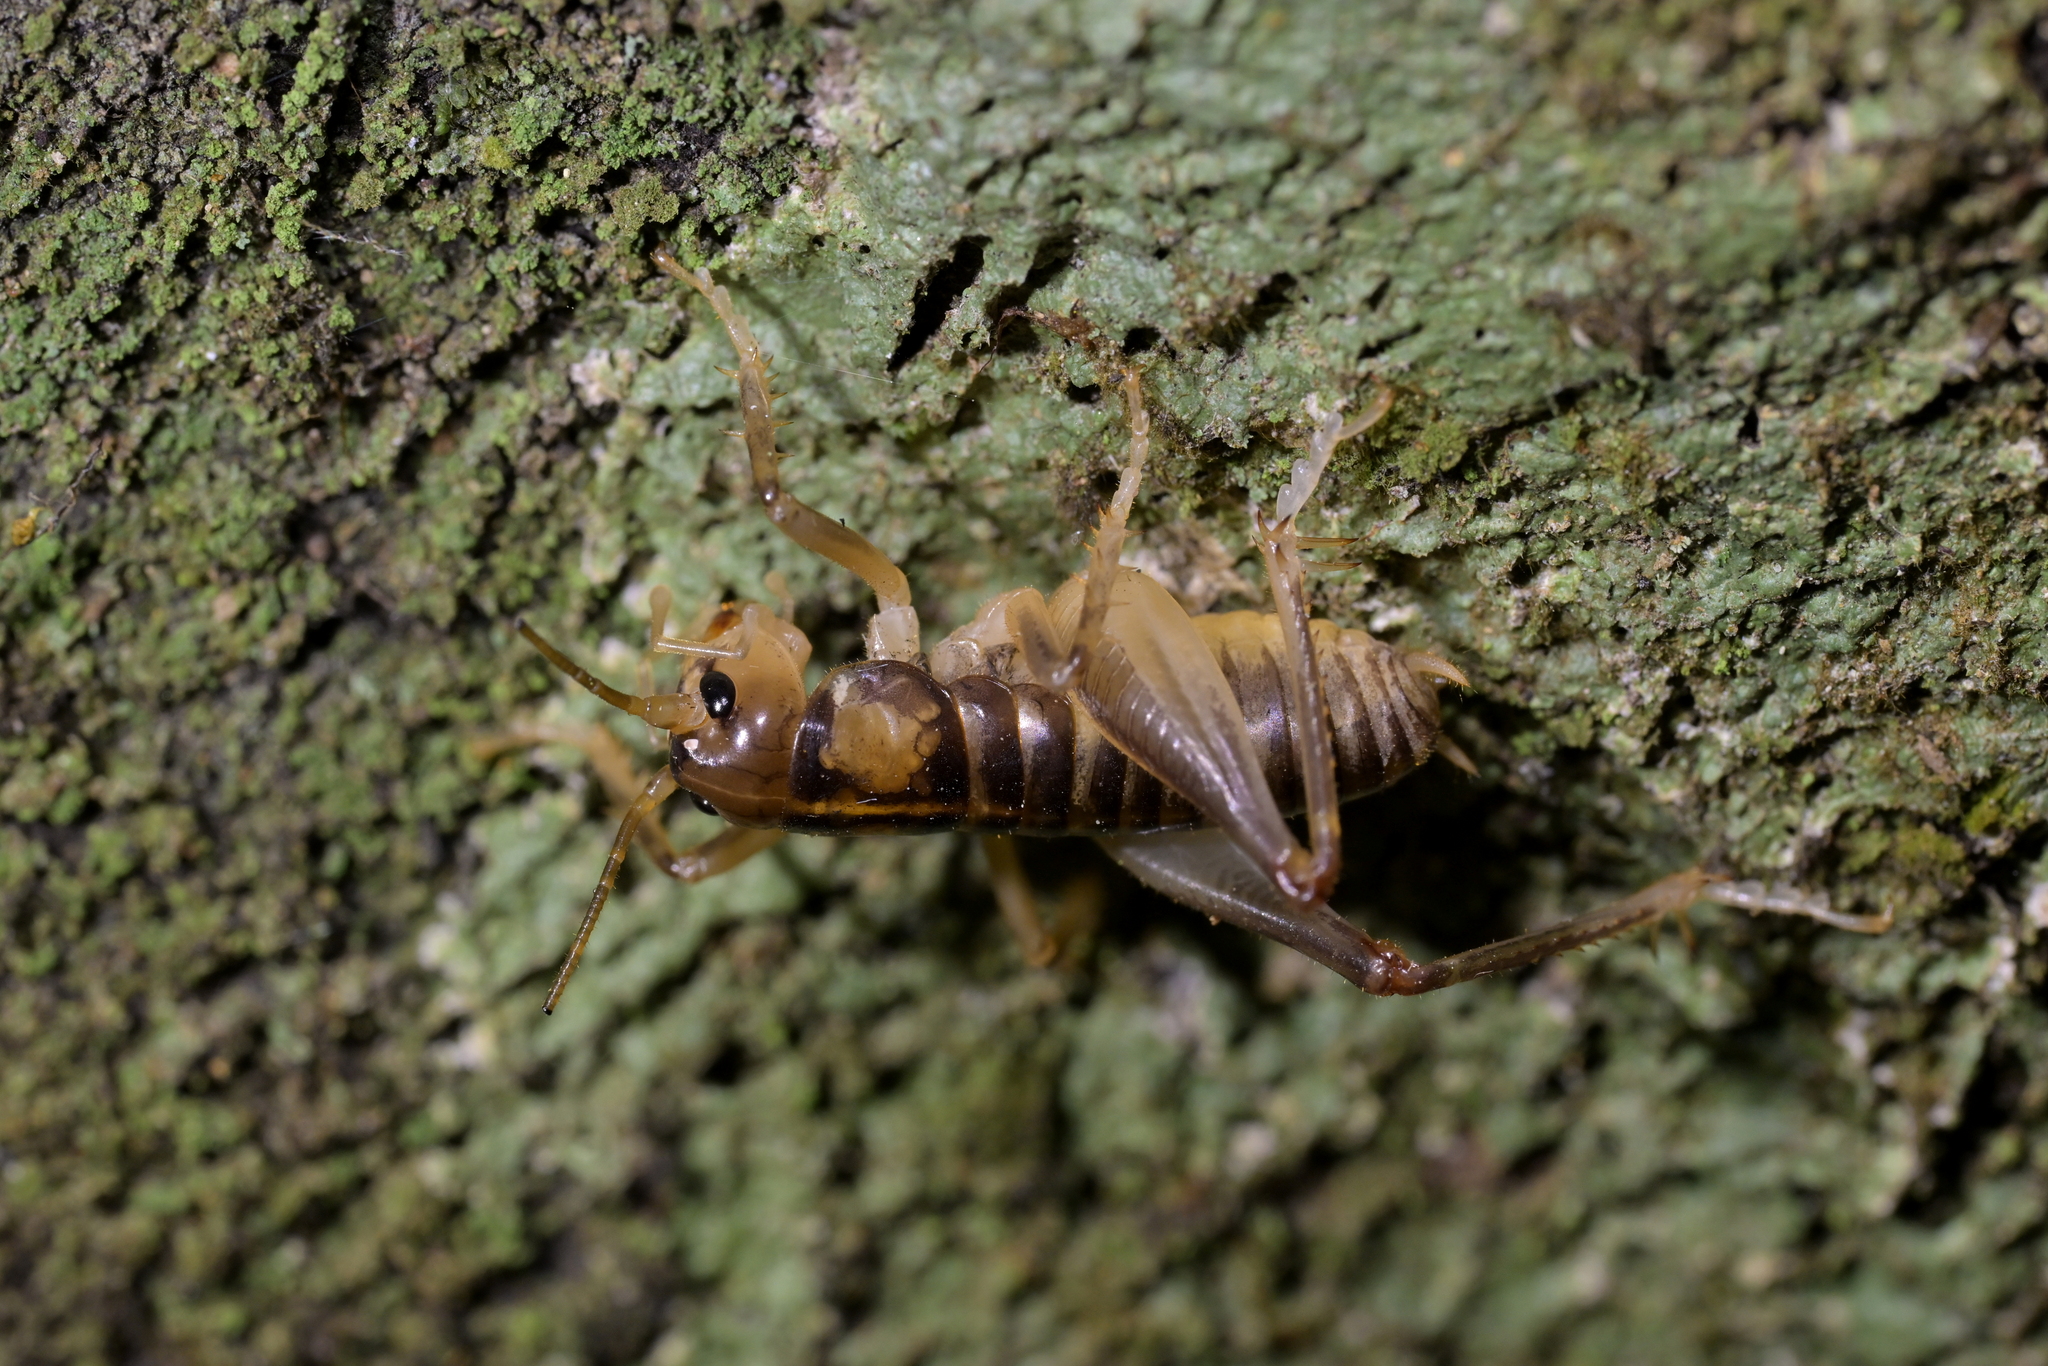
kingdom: Animalia
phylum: Arthropoda
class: Insecta
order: Orthoptera
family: Anostostomatidae
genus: Hemiandrus
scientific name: Hemiandrus pallitarsis
